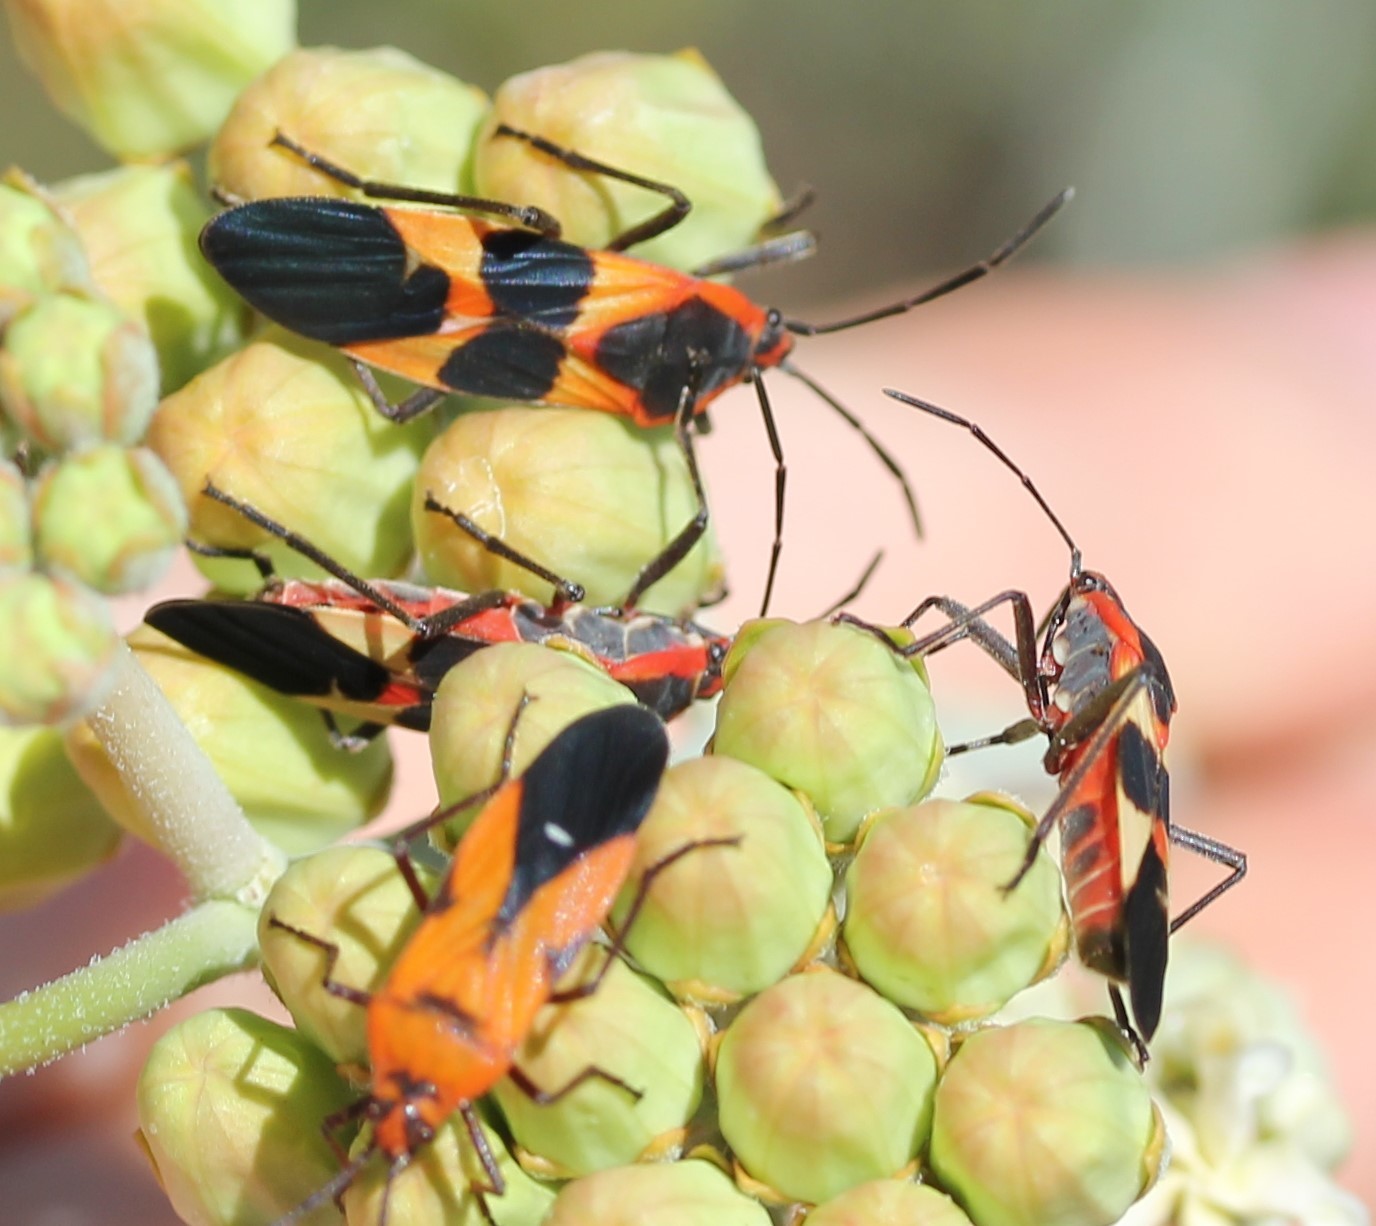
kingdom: Animalia
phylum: Arthropoda
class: Insecta
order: Hemiptera
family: Lygaeidae
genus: Oncopeltus
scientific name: Oncopeltus fasciatus
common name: Large milkweed bug
